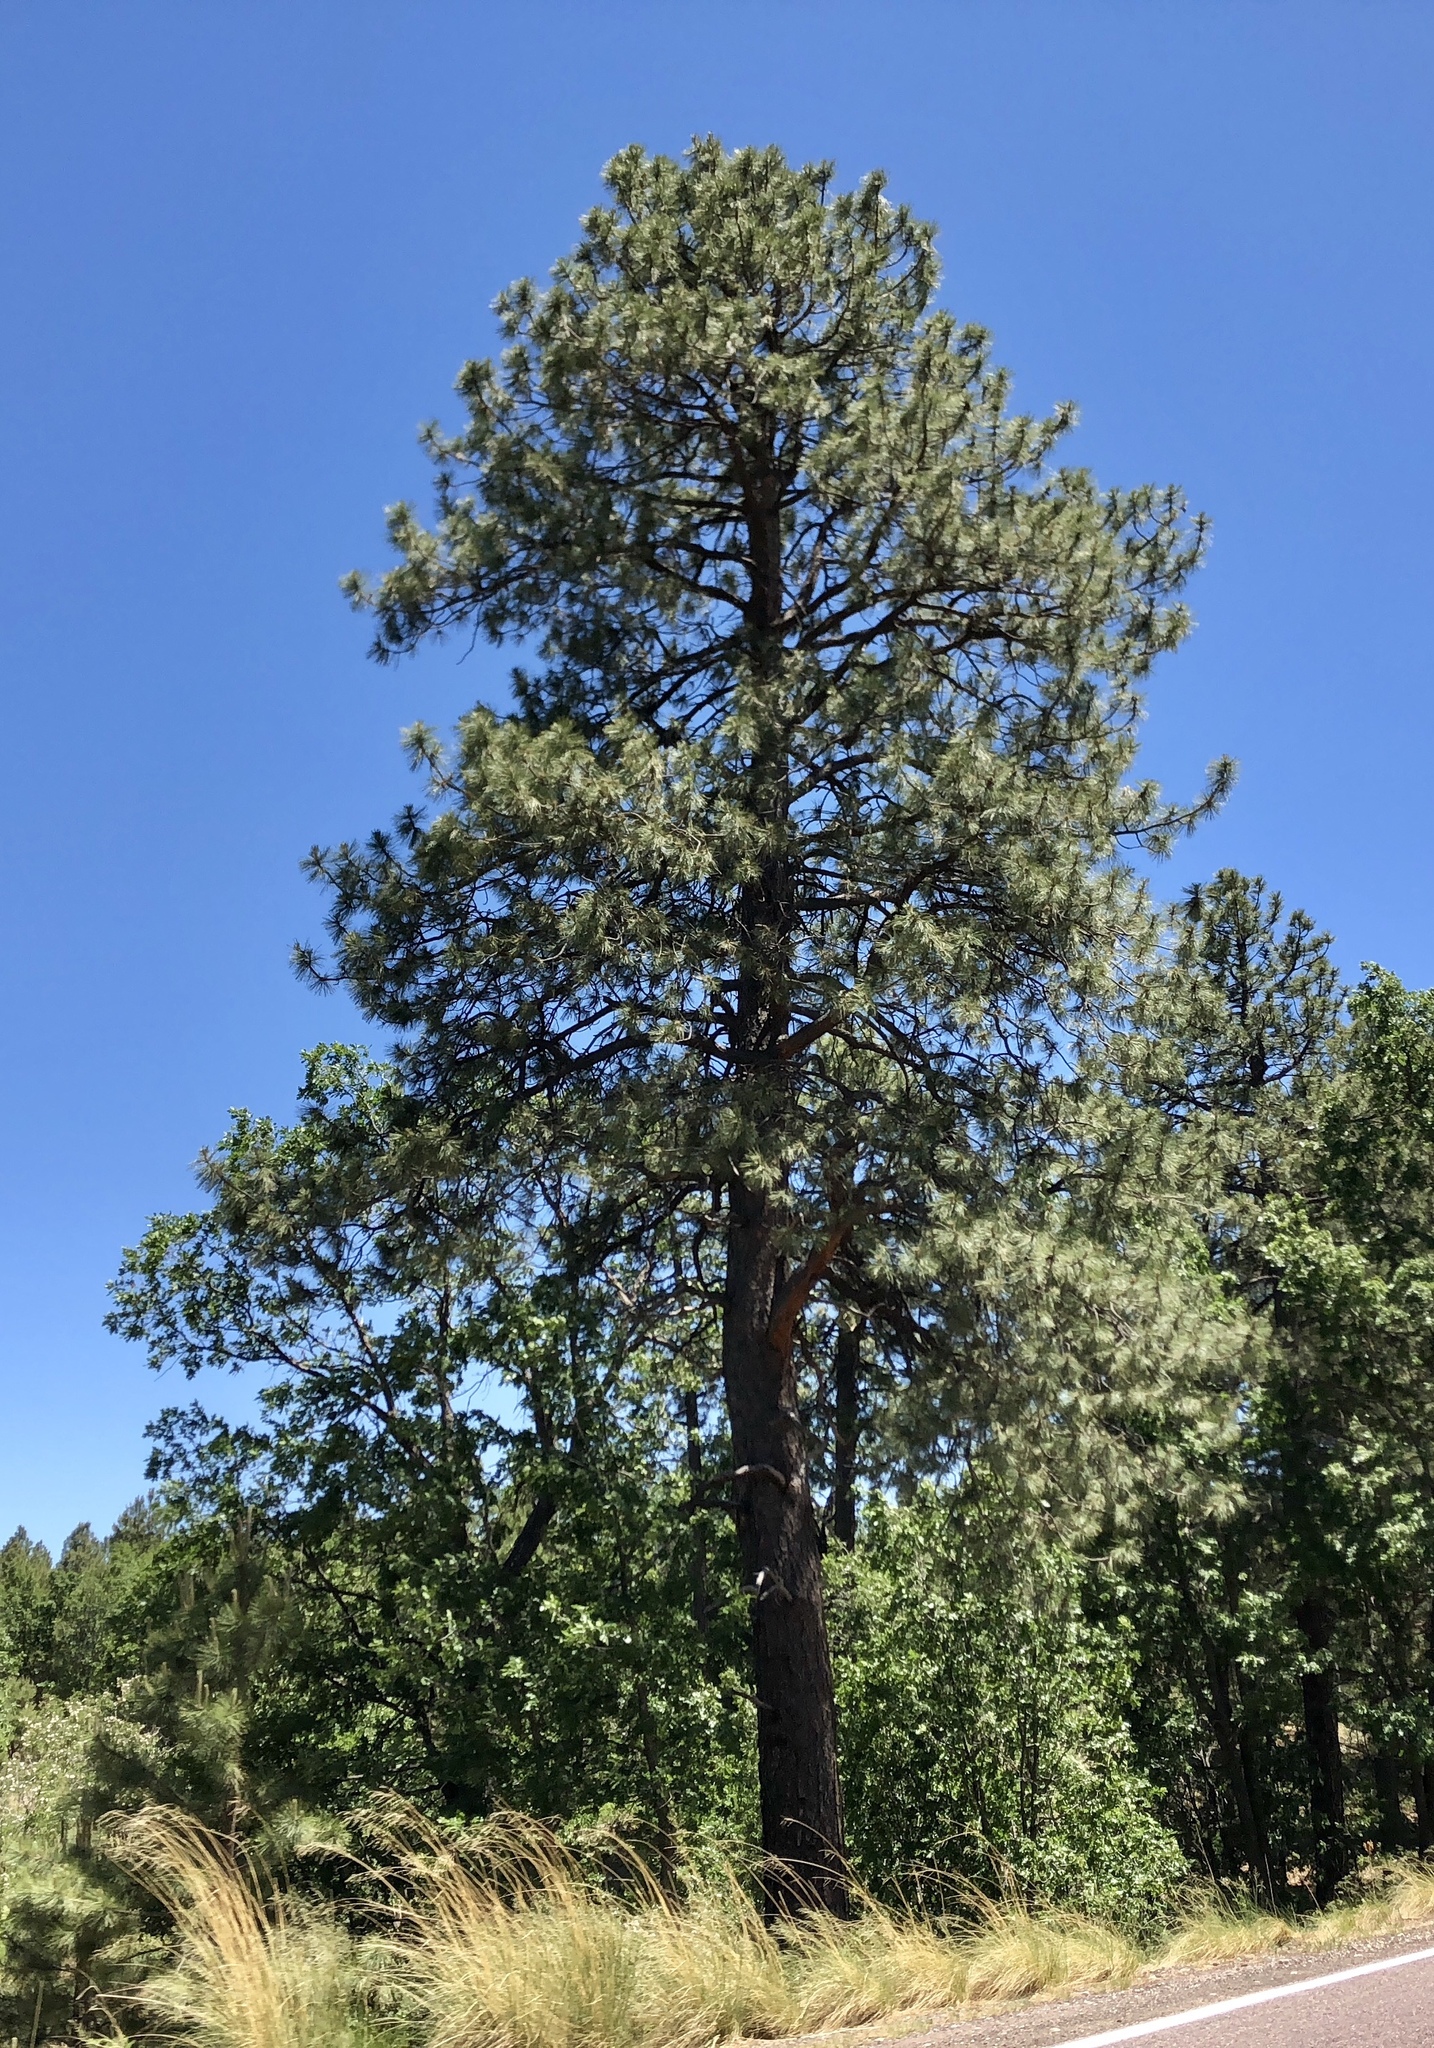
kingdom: Plantae
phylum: Tracheophyta
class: Pinopsida
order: Pinales
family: Pinaceae
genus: Pinus
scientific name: Pinus ponderosa
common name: Western yellow-pine
